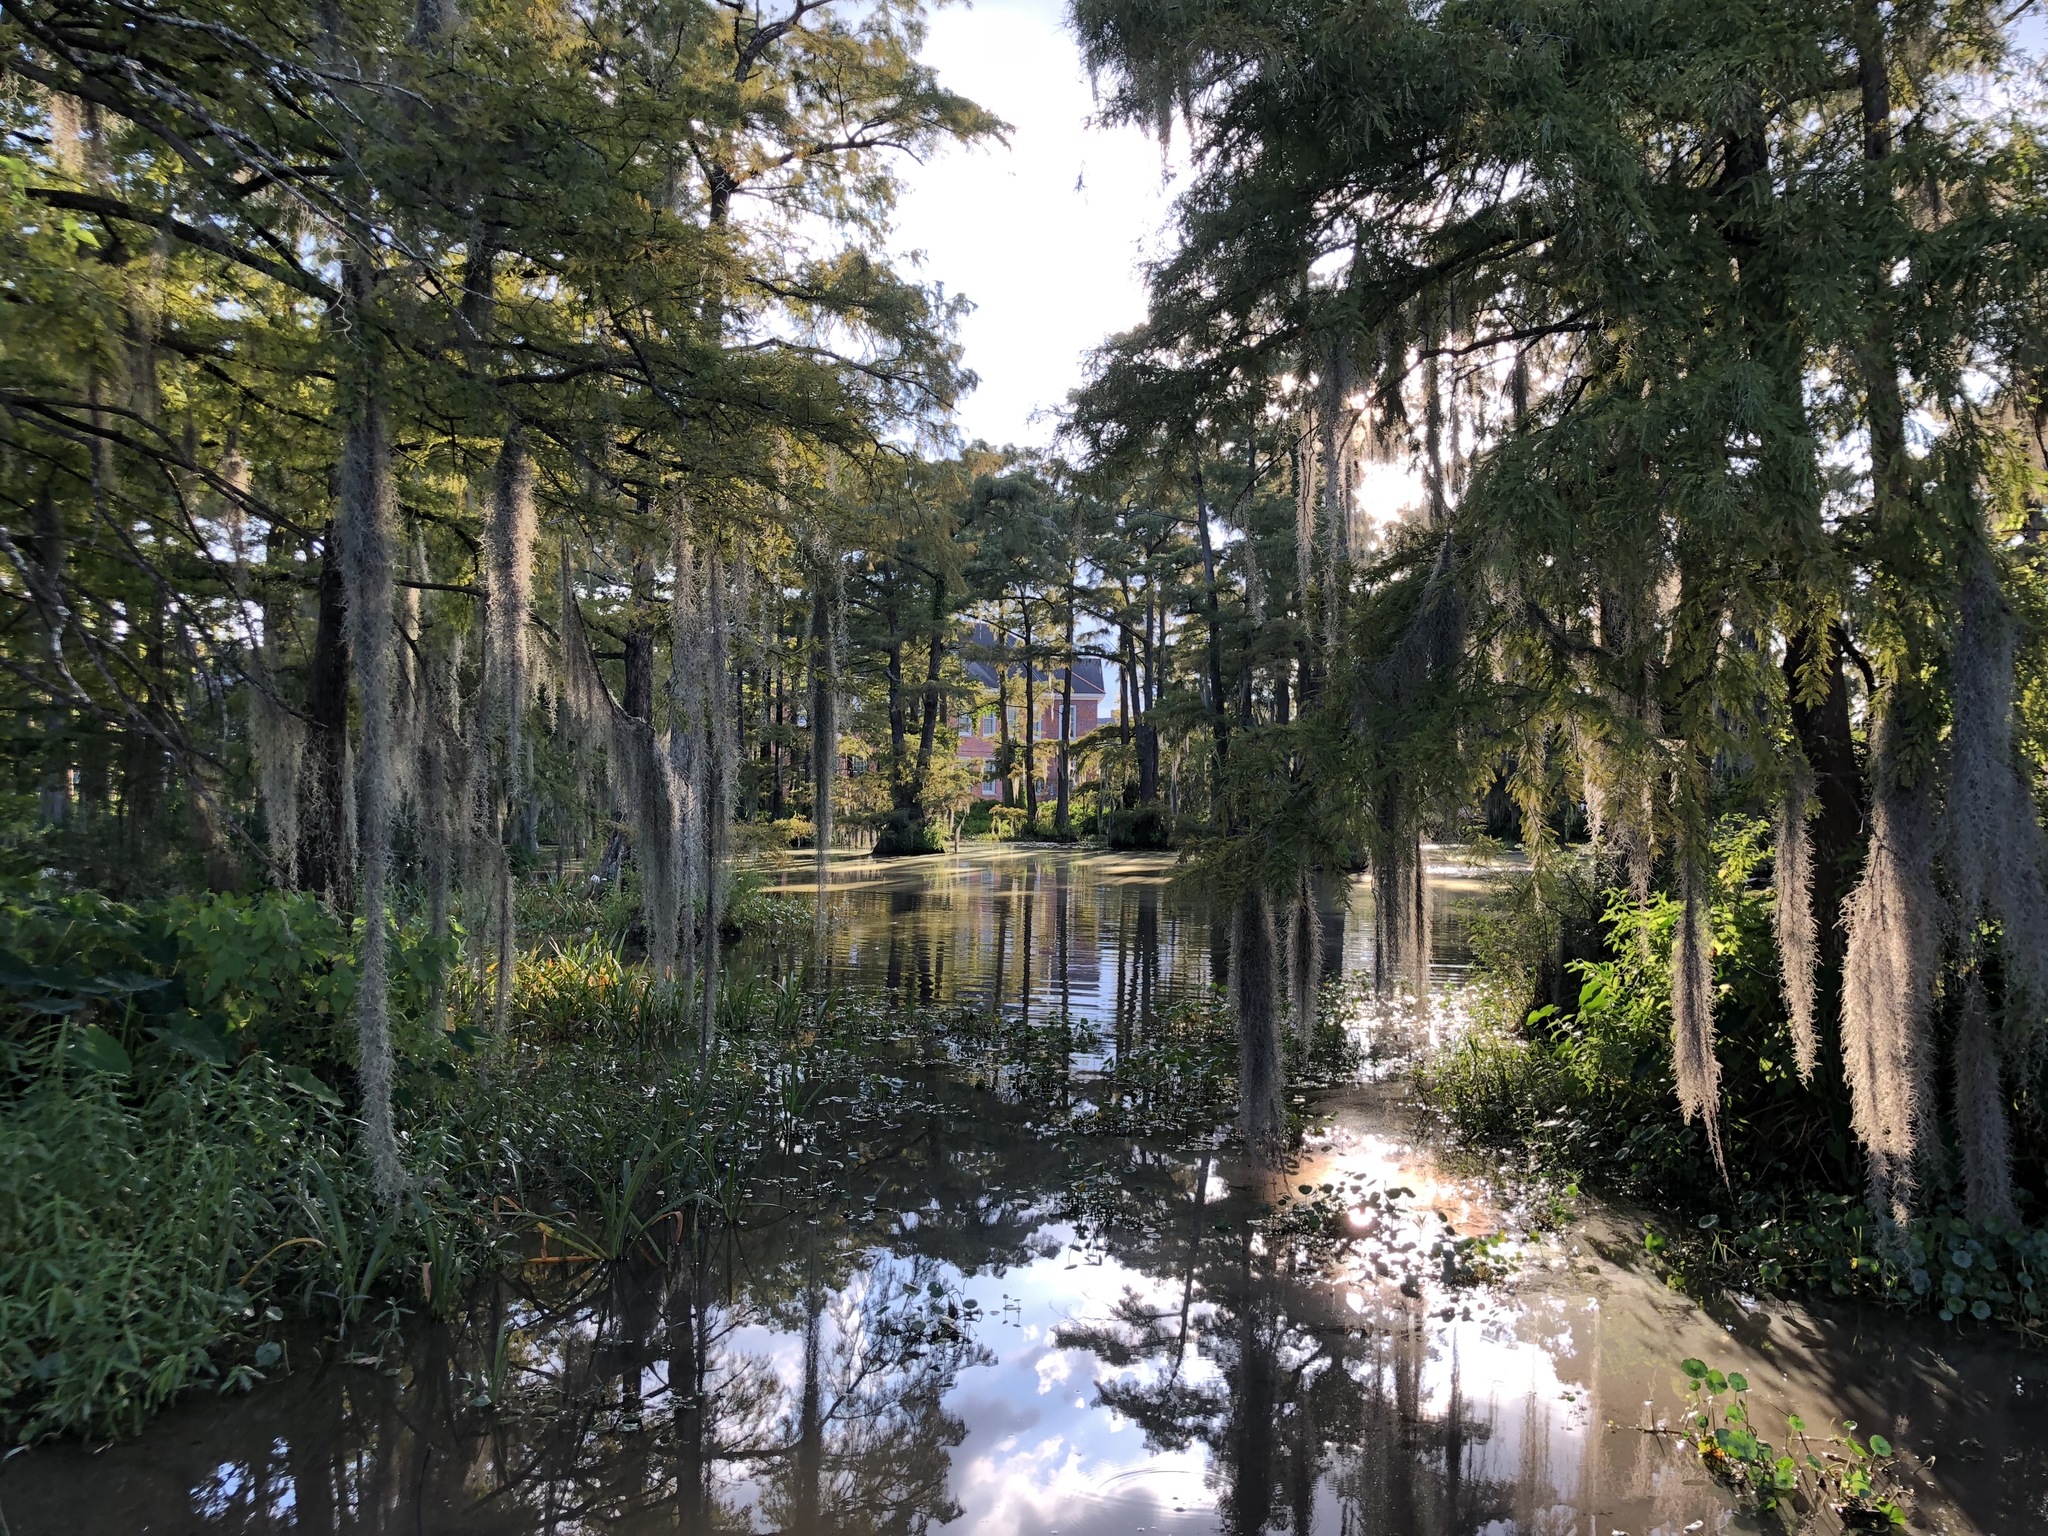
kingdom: Plantae
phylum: Tracheophyta
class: Liliopsida
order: Poales
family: Bromeliaceae
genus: Tillandsia
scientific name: Tillandsia usneoides
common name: Spanish moss
